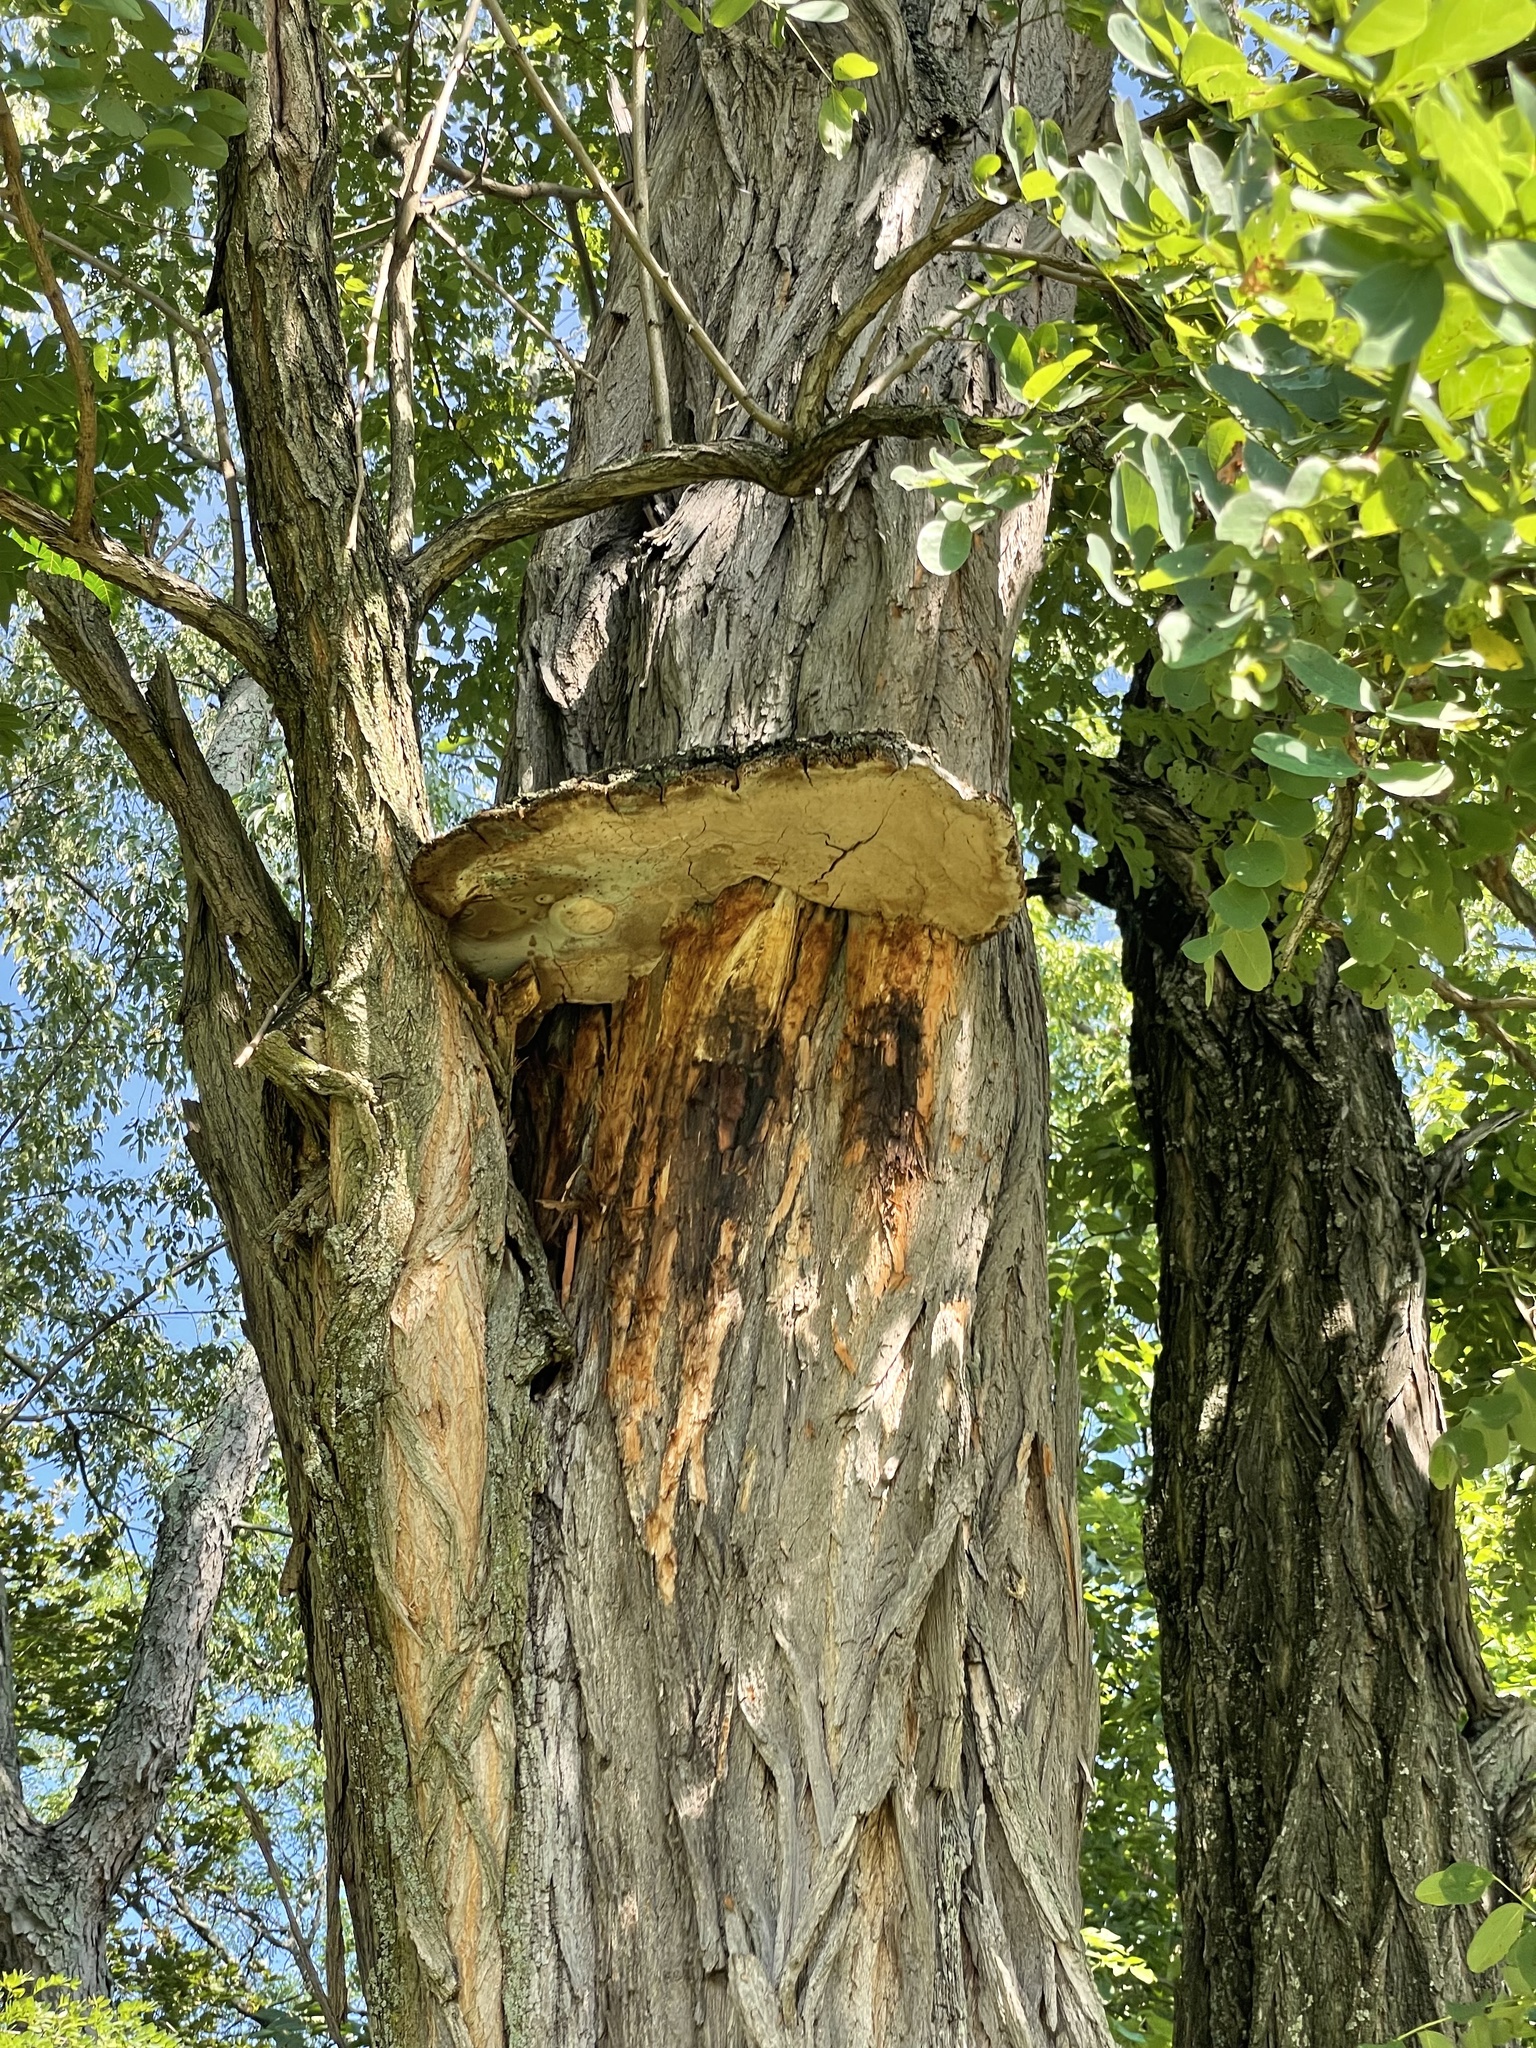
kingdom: Fungi
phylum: Basidiomycota
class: Agaricomycetes
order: Hymenochaetales
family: Hymenochaetaceae
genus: Phellinus
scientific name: Phellinus robiniae
